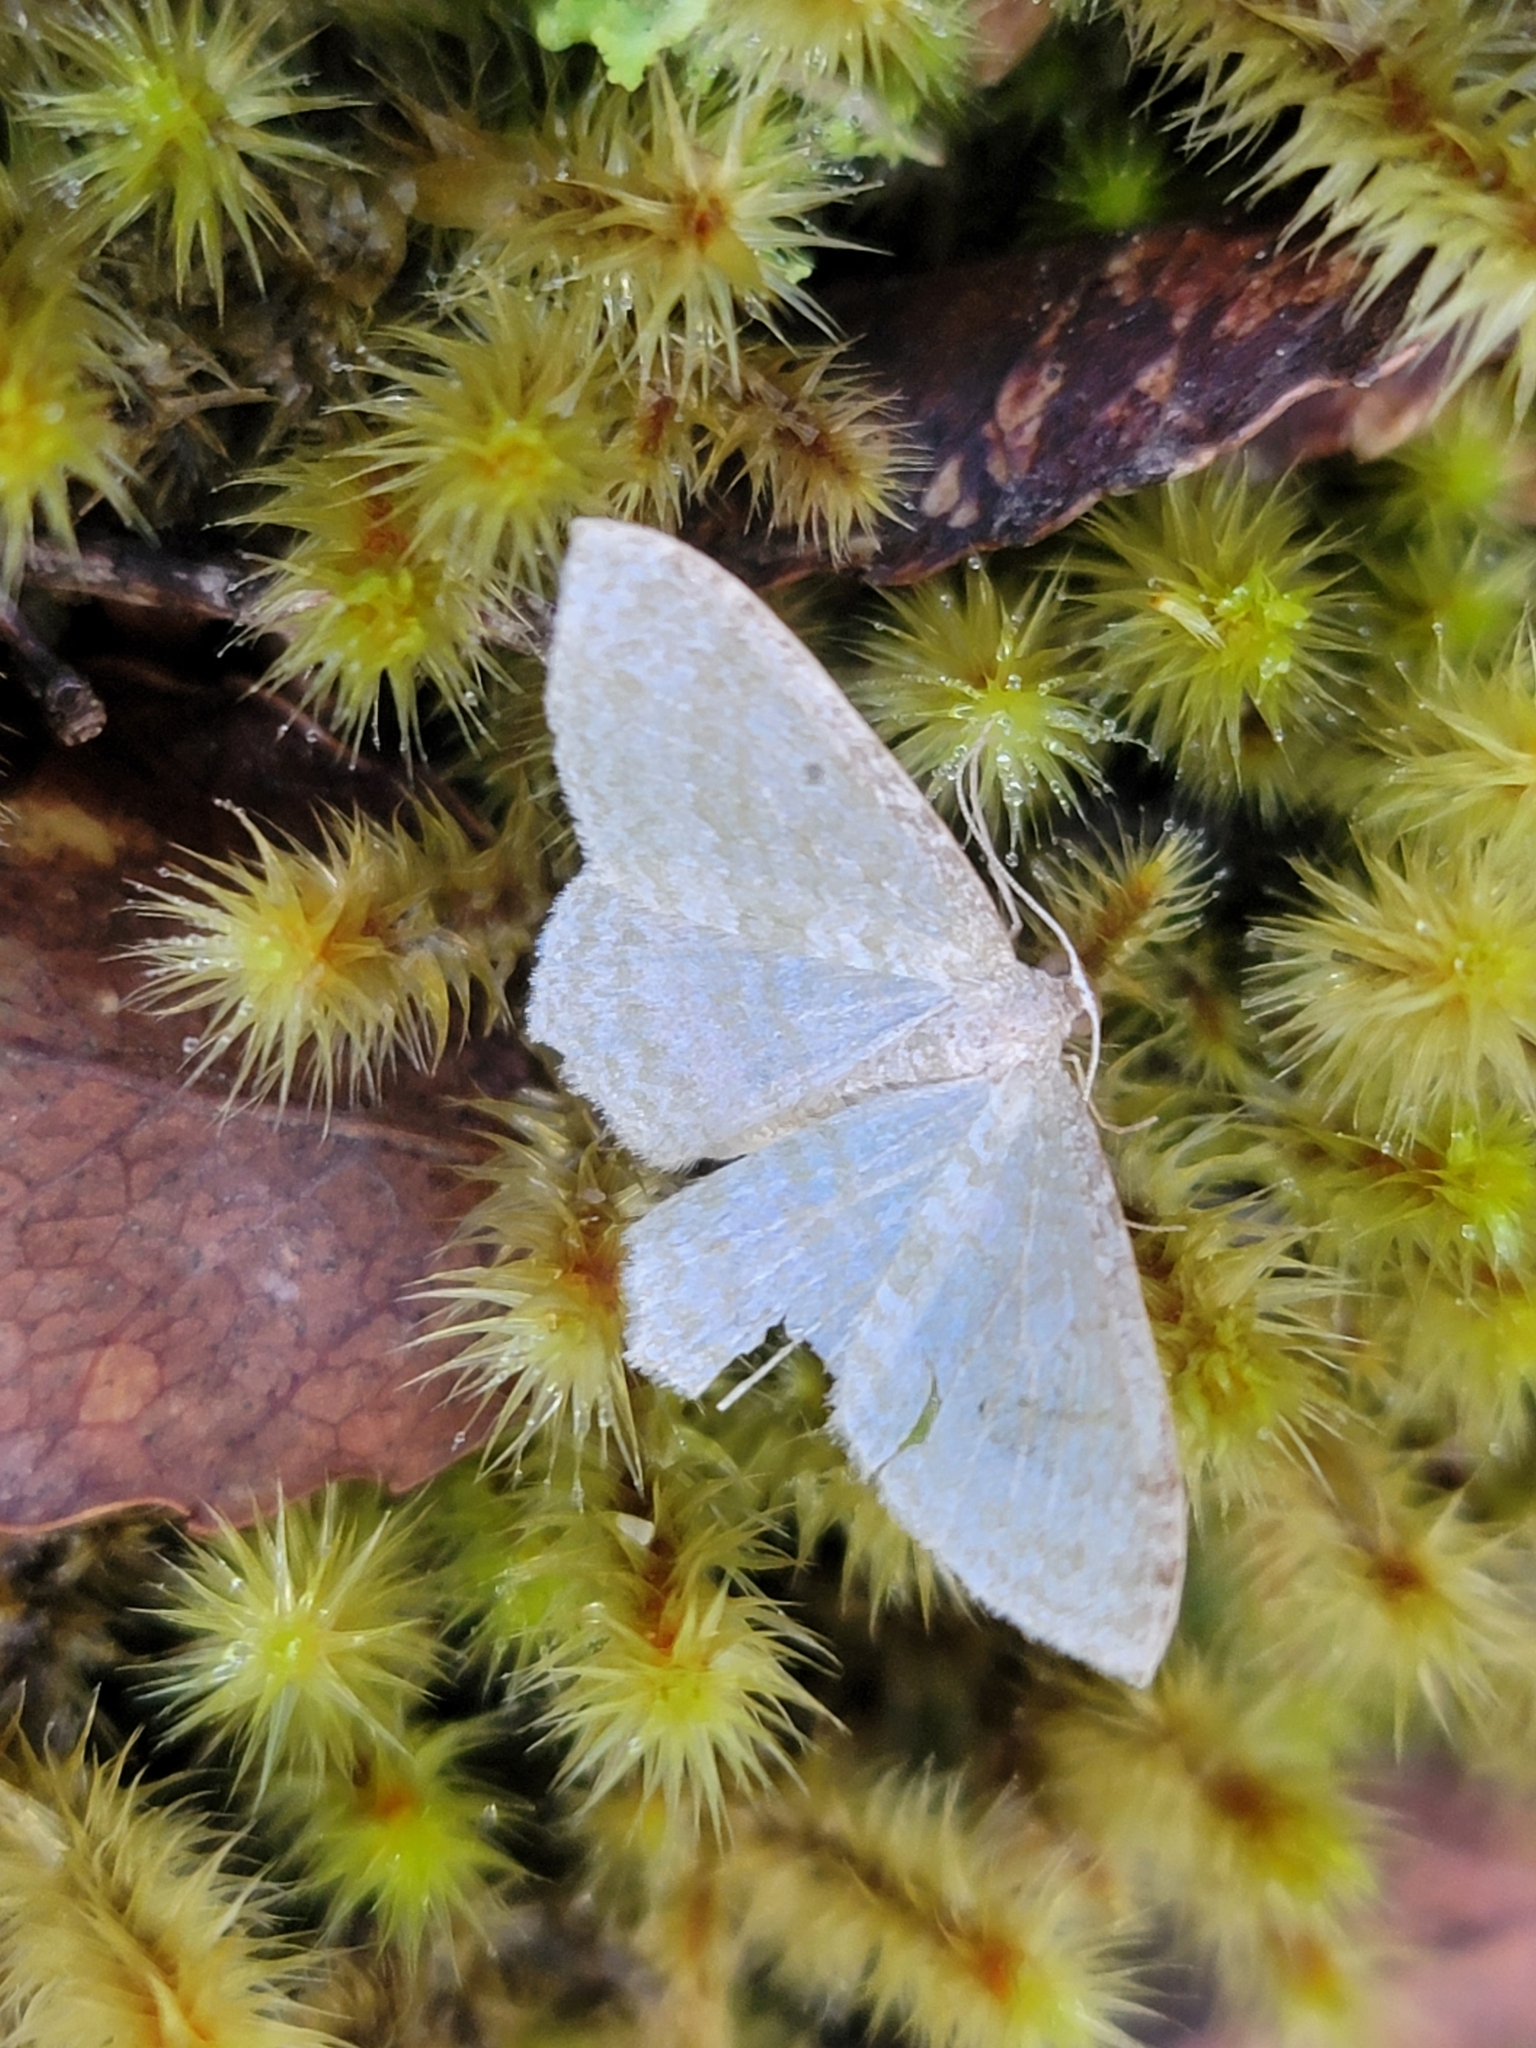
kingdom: Animalia
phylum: Arthropoda
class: Insecta
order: Lepidoptera
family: Geometridae
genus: Poecilasthena
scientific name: Poecilasthena pulchraria
